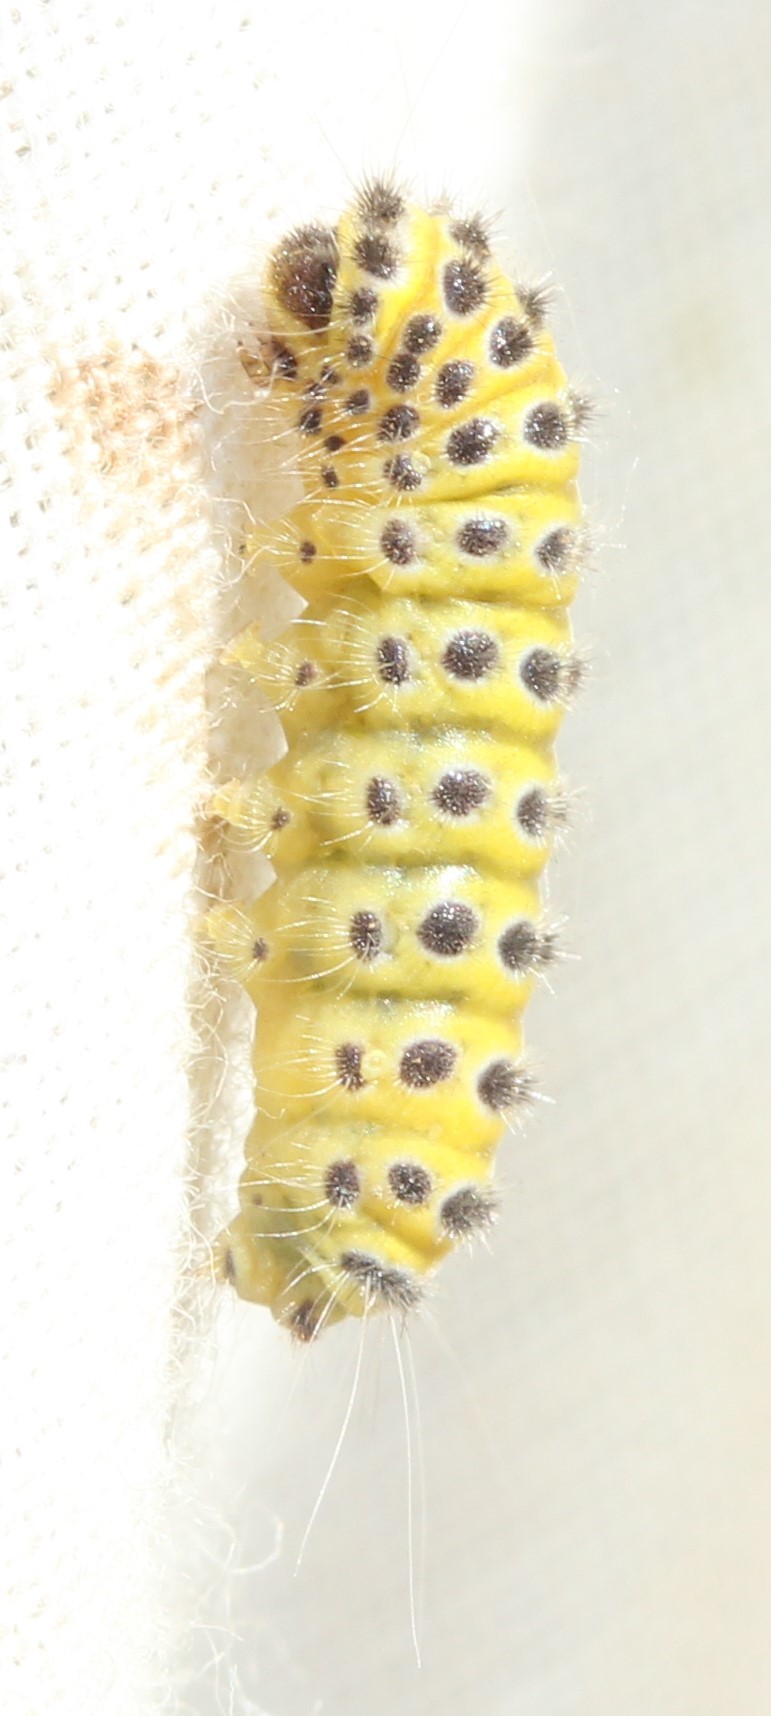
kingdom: Animalia
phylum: Arthropoda
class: Insecta
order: Lepidoptera
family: Zygaenidae
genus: Harrisina
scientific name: Harrisina americana
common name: Grapeleaf skeletonizer moth
